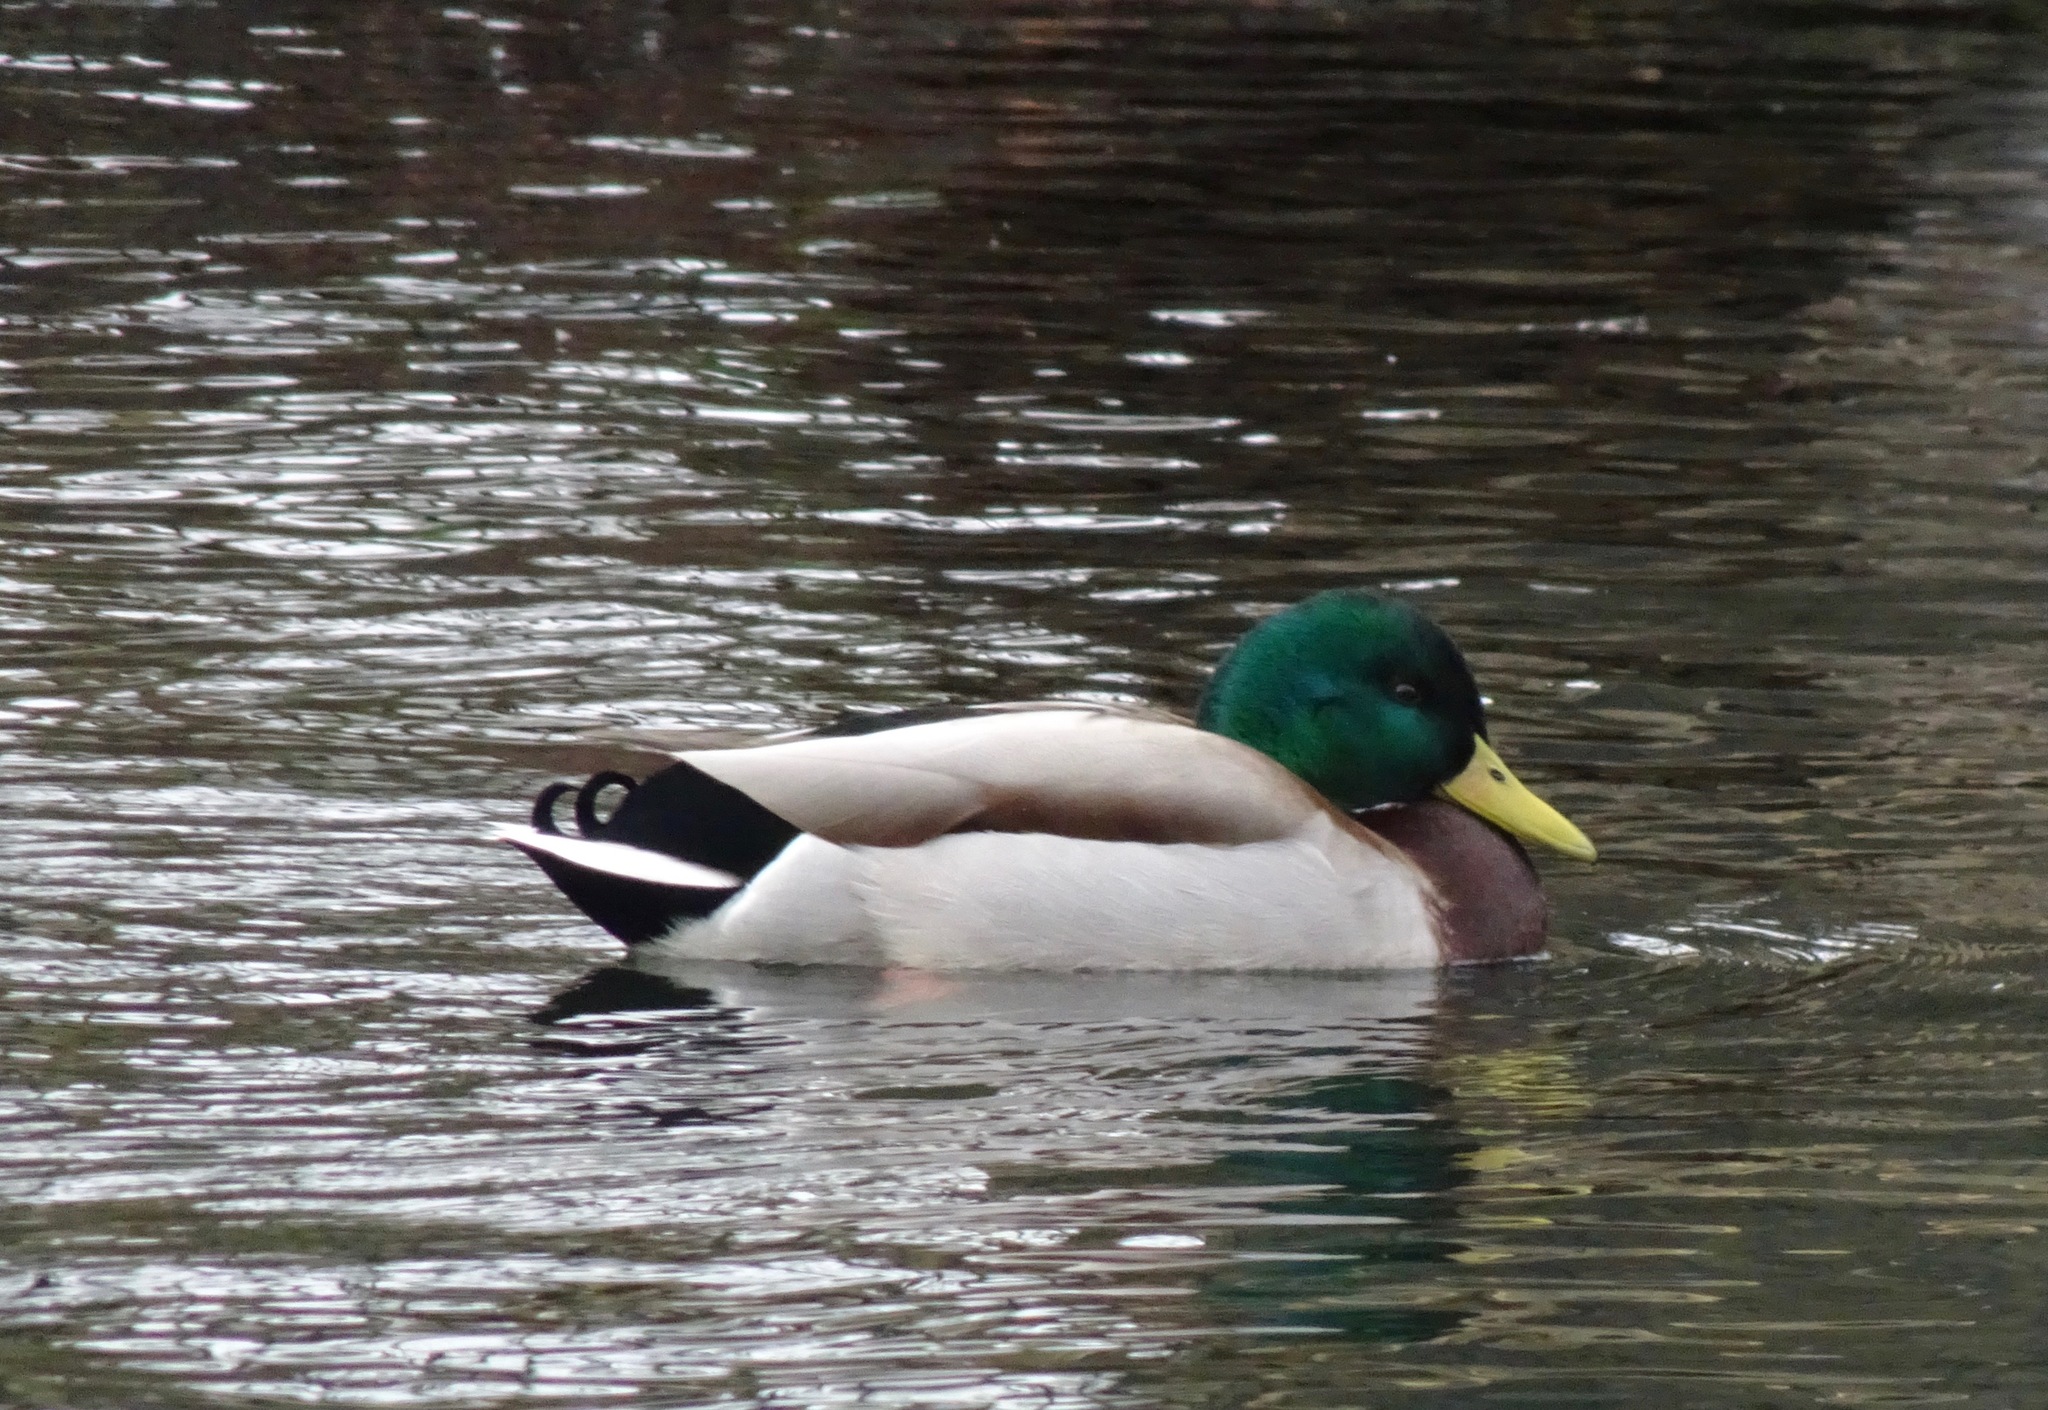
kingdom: Animalia
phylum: Chordata
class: Aves
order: Anseriformes
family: Anatidae
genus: Anas
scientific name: Anas platyrhynchos
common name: Mallard
